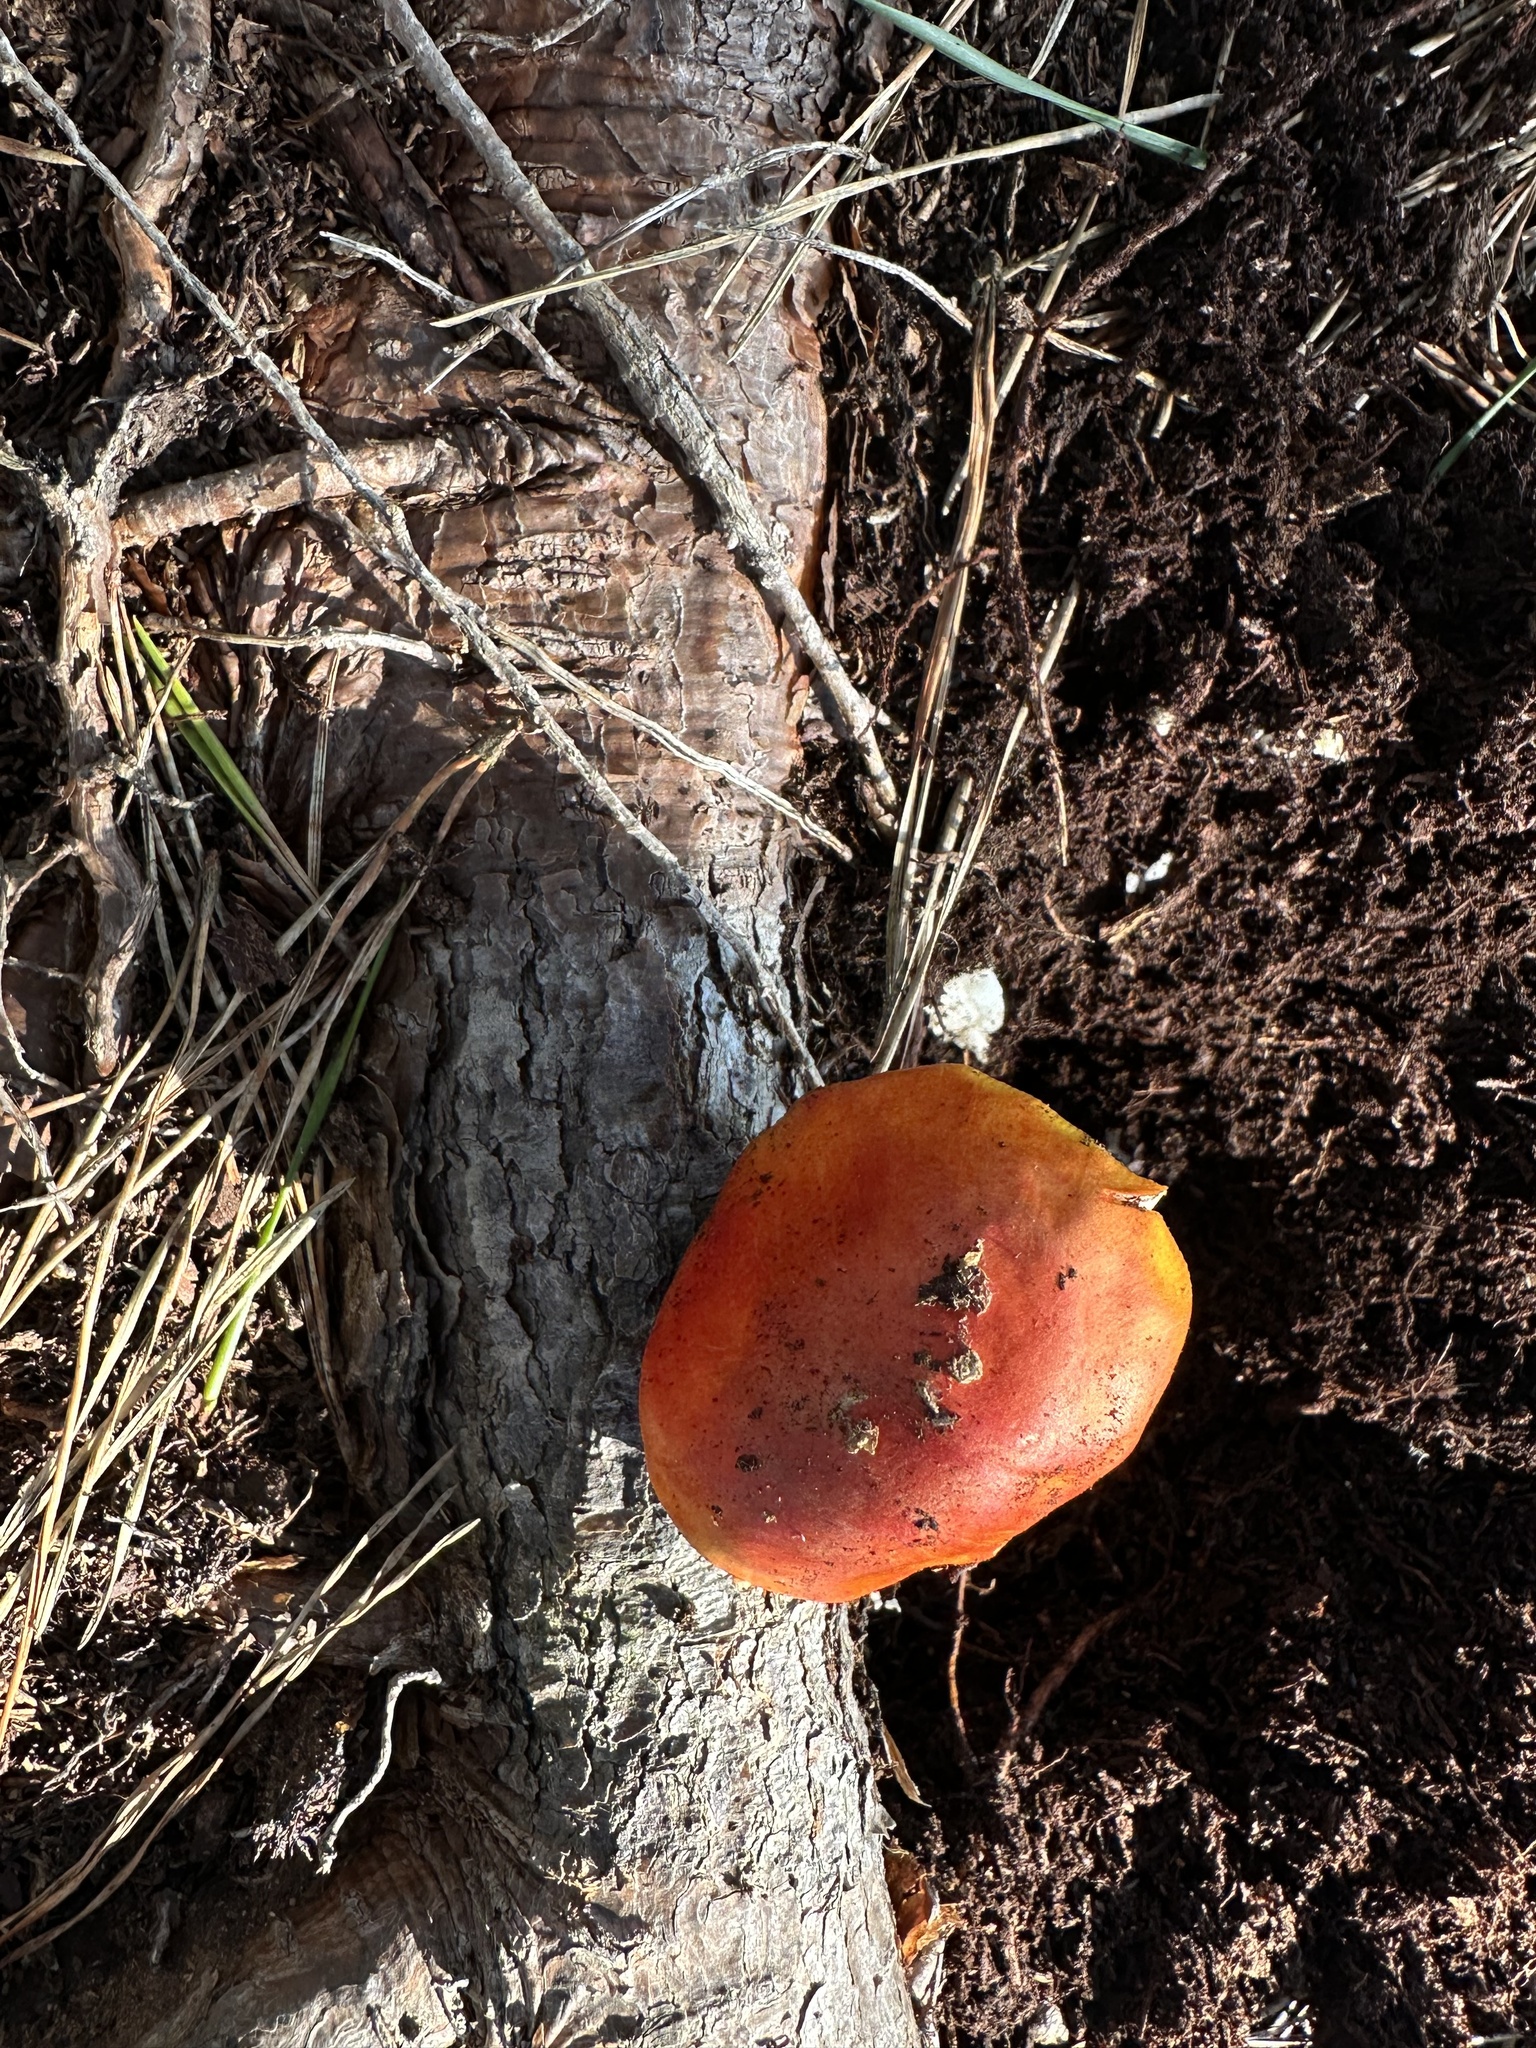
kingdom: Fungi
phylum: Basidiomycota
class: Agaricomycetes
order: Agaricales
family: Amanitaceae
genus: Amanita
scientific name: Amanita muscaria
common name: Fly agaric
